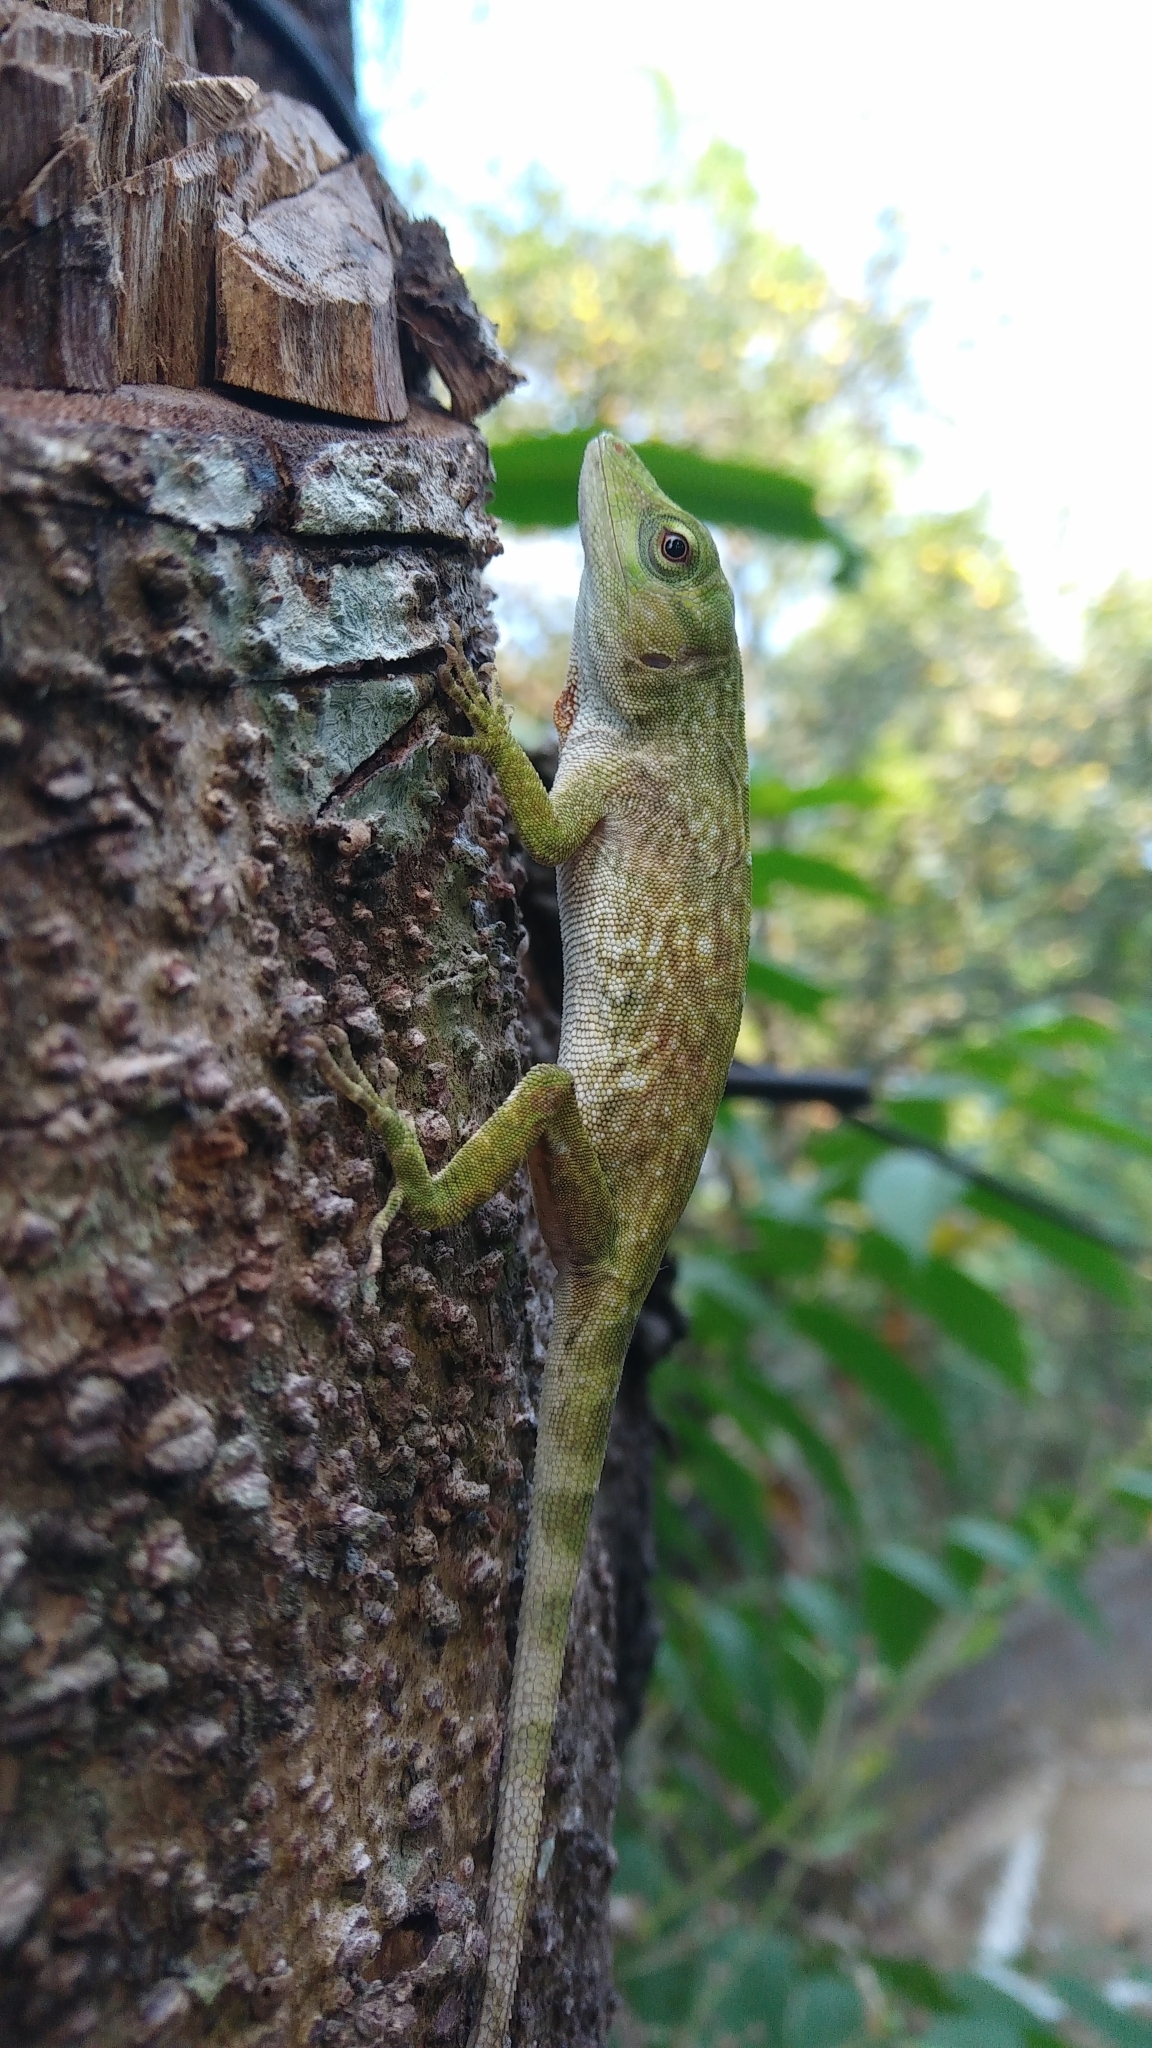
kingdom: Animalia
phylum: Chordata
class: Squamata
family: Dactyloidae
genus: Anolis
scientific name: Anolis biporcatus
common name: Giant green anole
